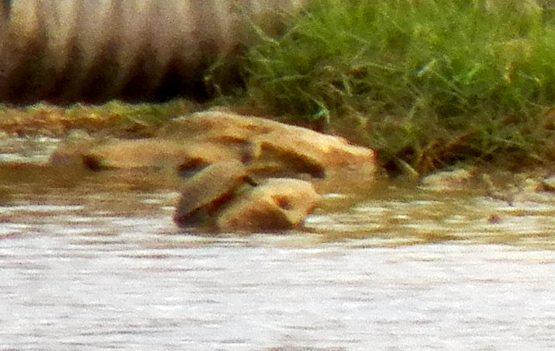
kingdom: Animalia
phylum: Chordata
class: Testudines
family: Emydidae
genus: Trachemys
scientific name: Trachemys scripta
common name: Slider
